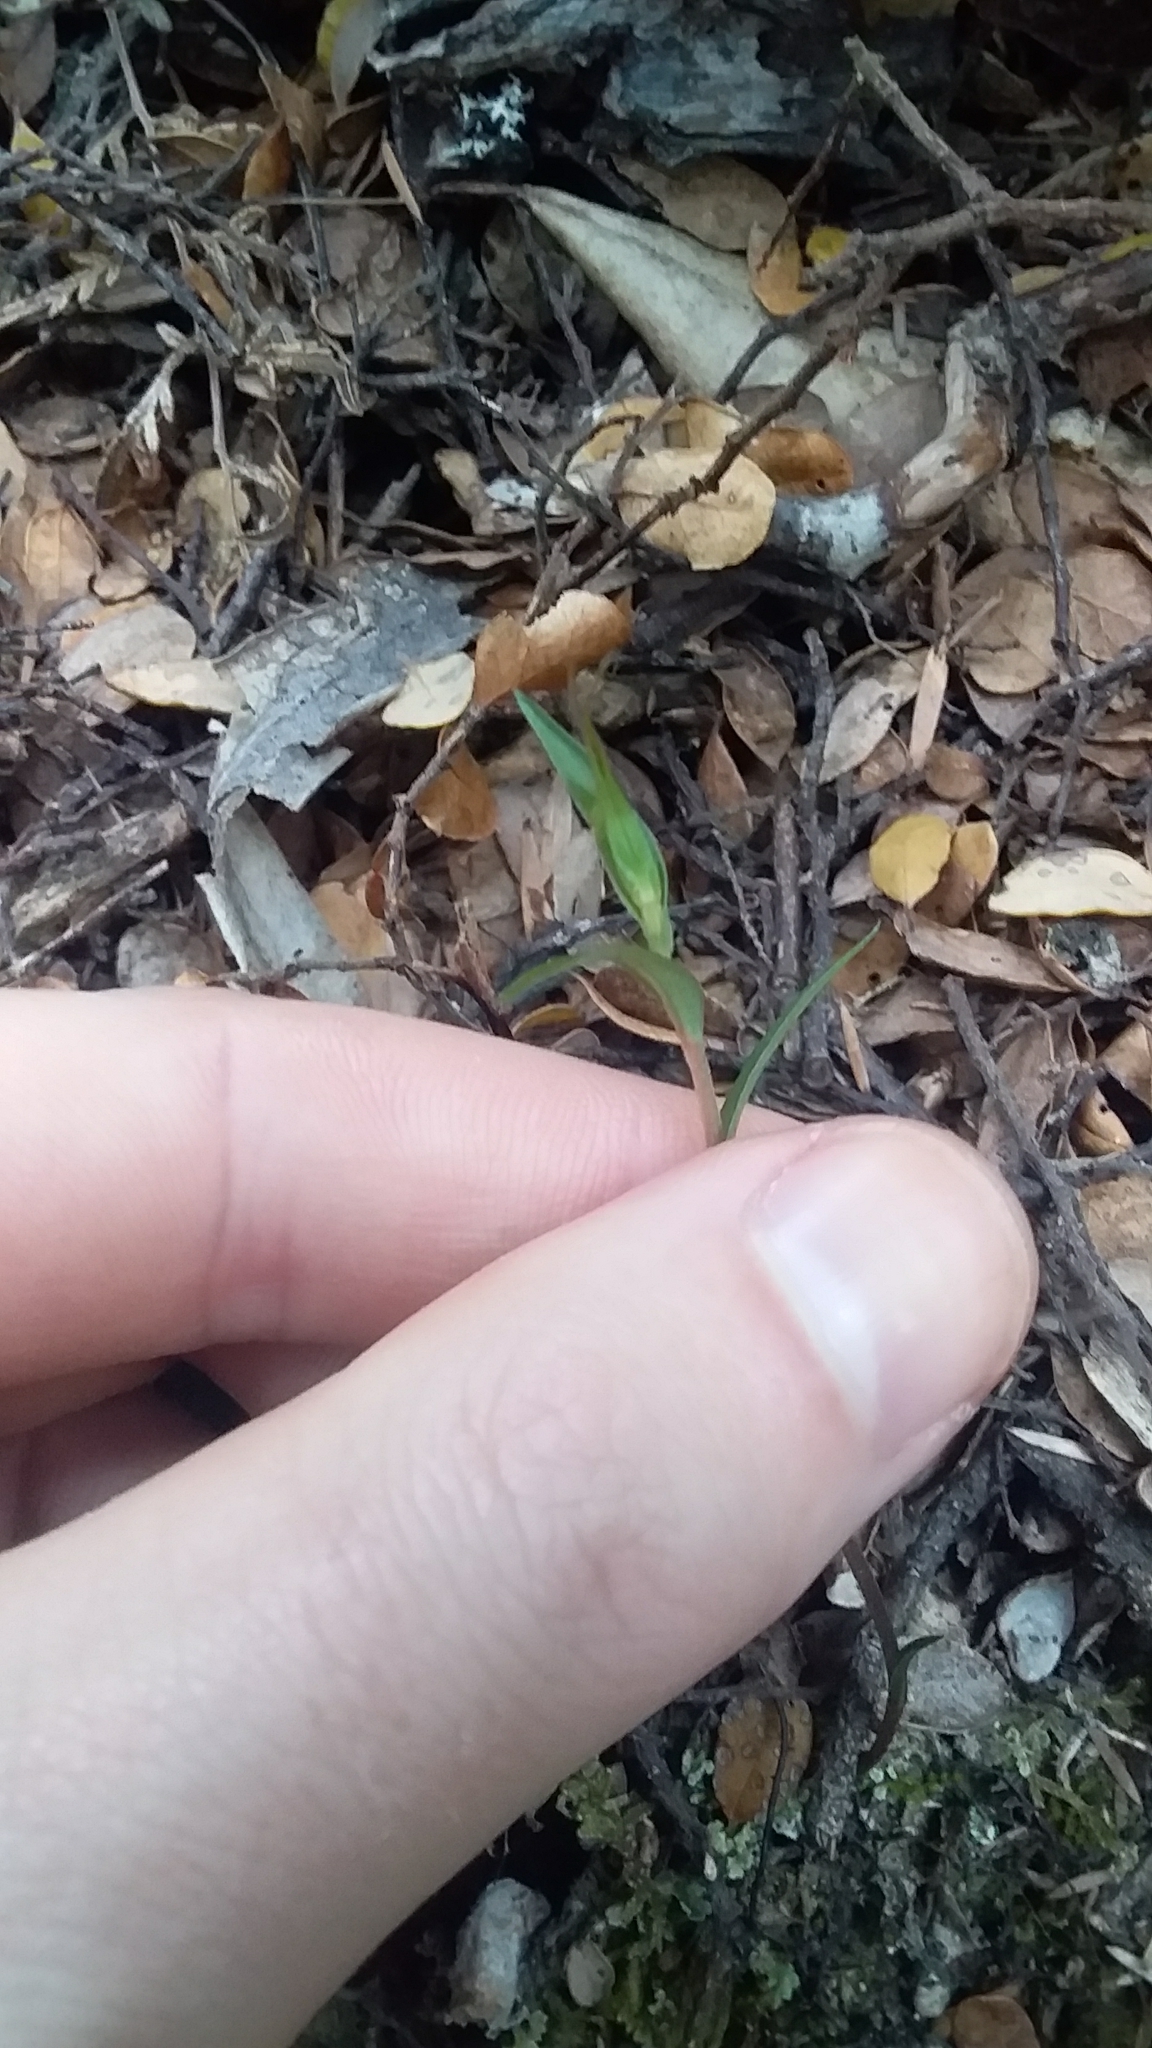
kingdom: Plantae
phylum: Tracheophyta
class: Liliopsida
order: Asparagales
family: Orchidaceae
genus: Pterostylis
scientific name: Pterostylis alobula
